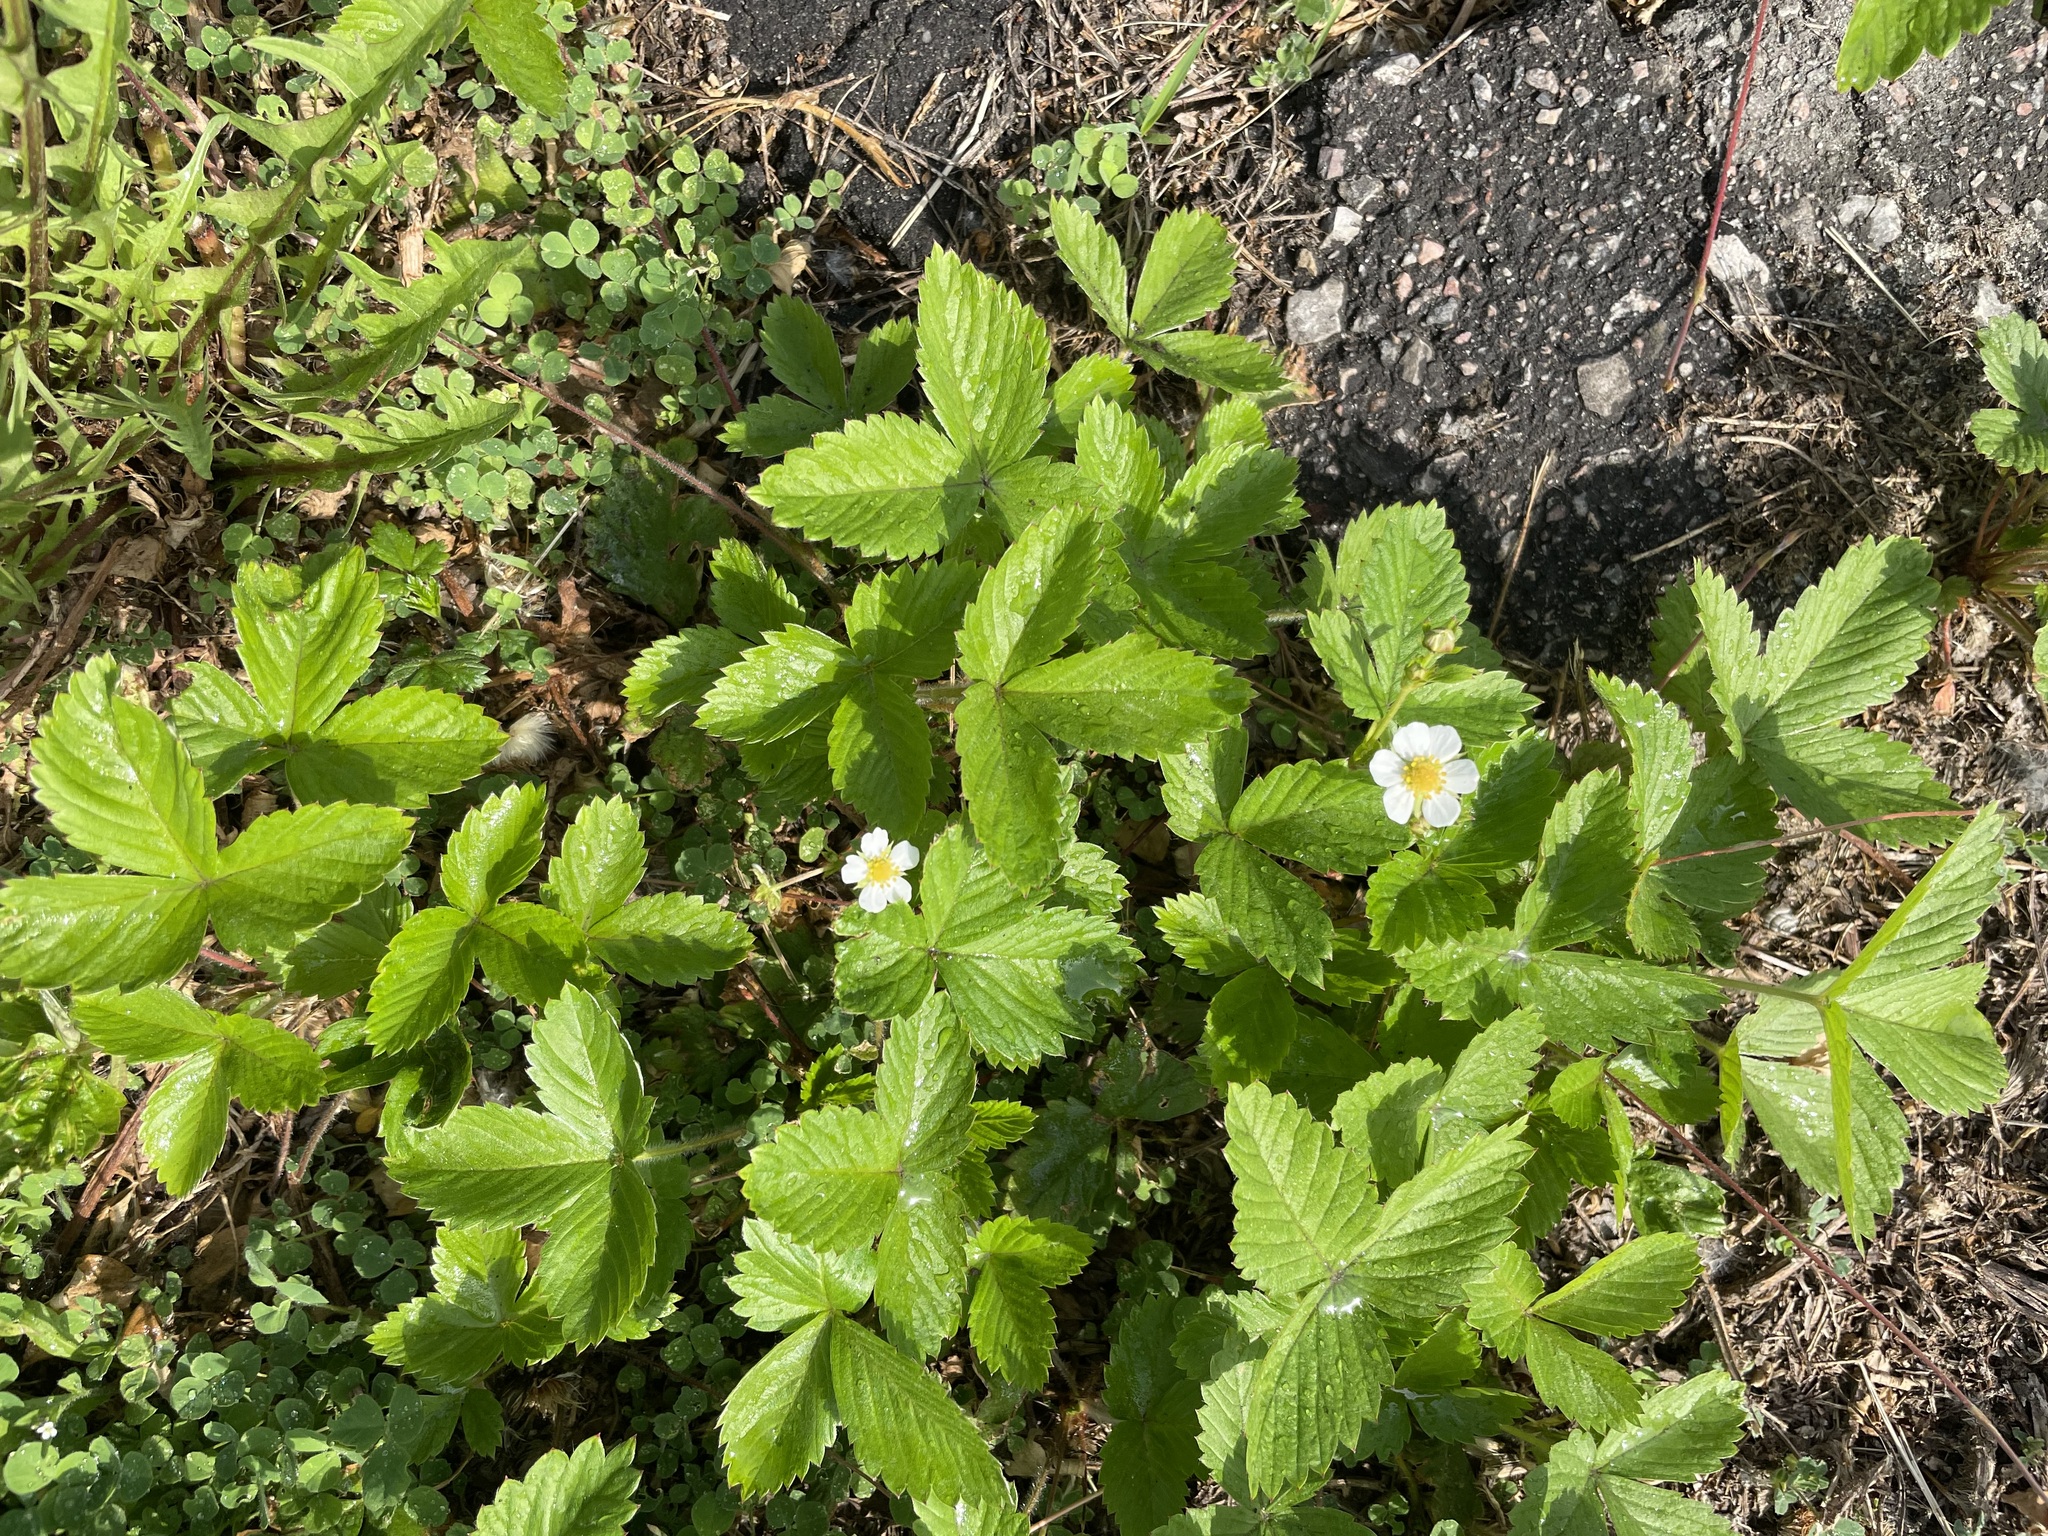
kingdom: Plantae
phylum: Tracheophyta
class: Magnoliopsida
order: Rosales
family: Rosaceae
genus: Fragaria
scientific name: Fragaria vesca
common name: Wild strawberry
